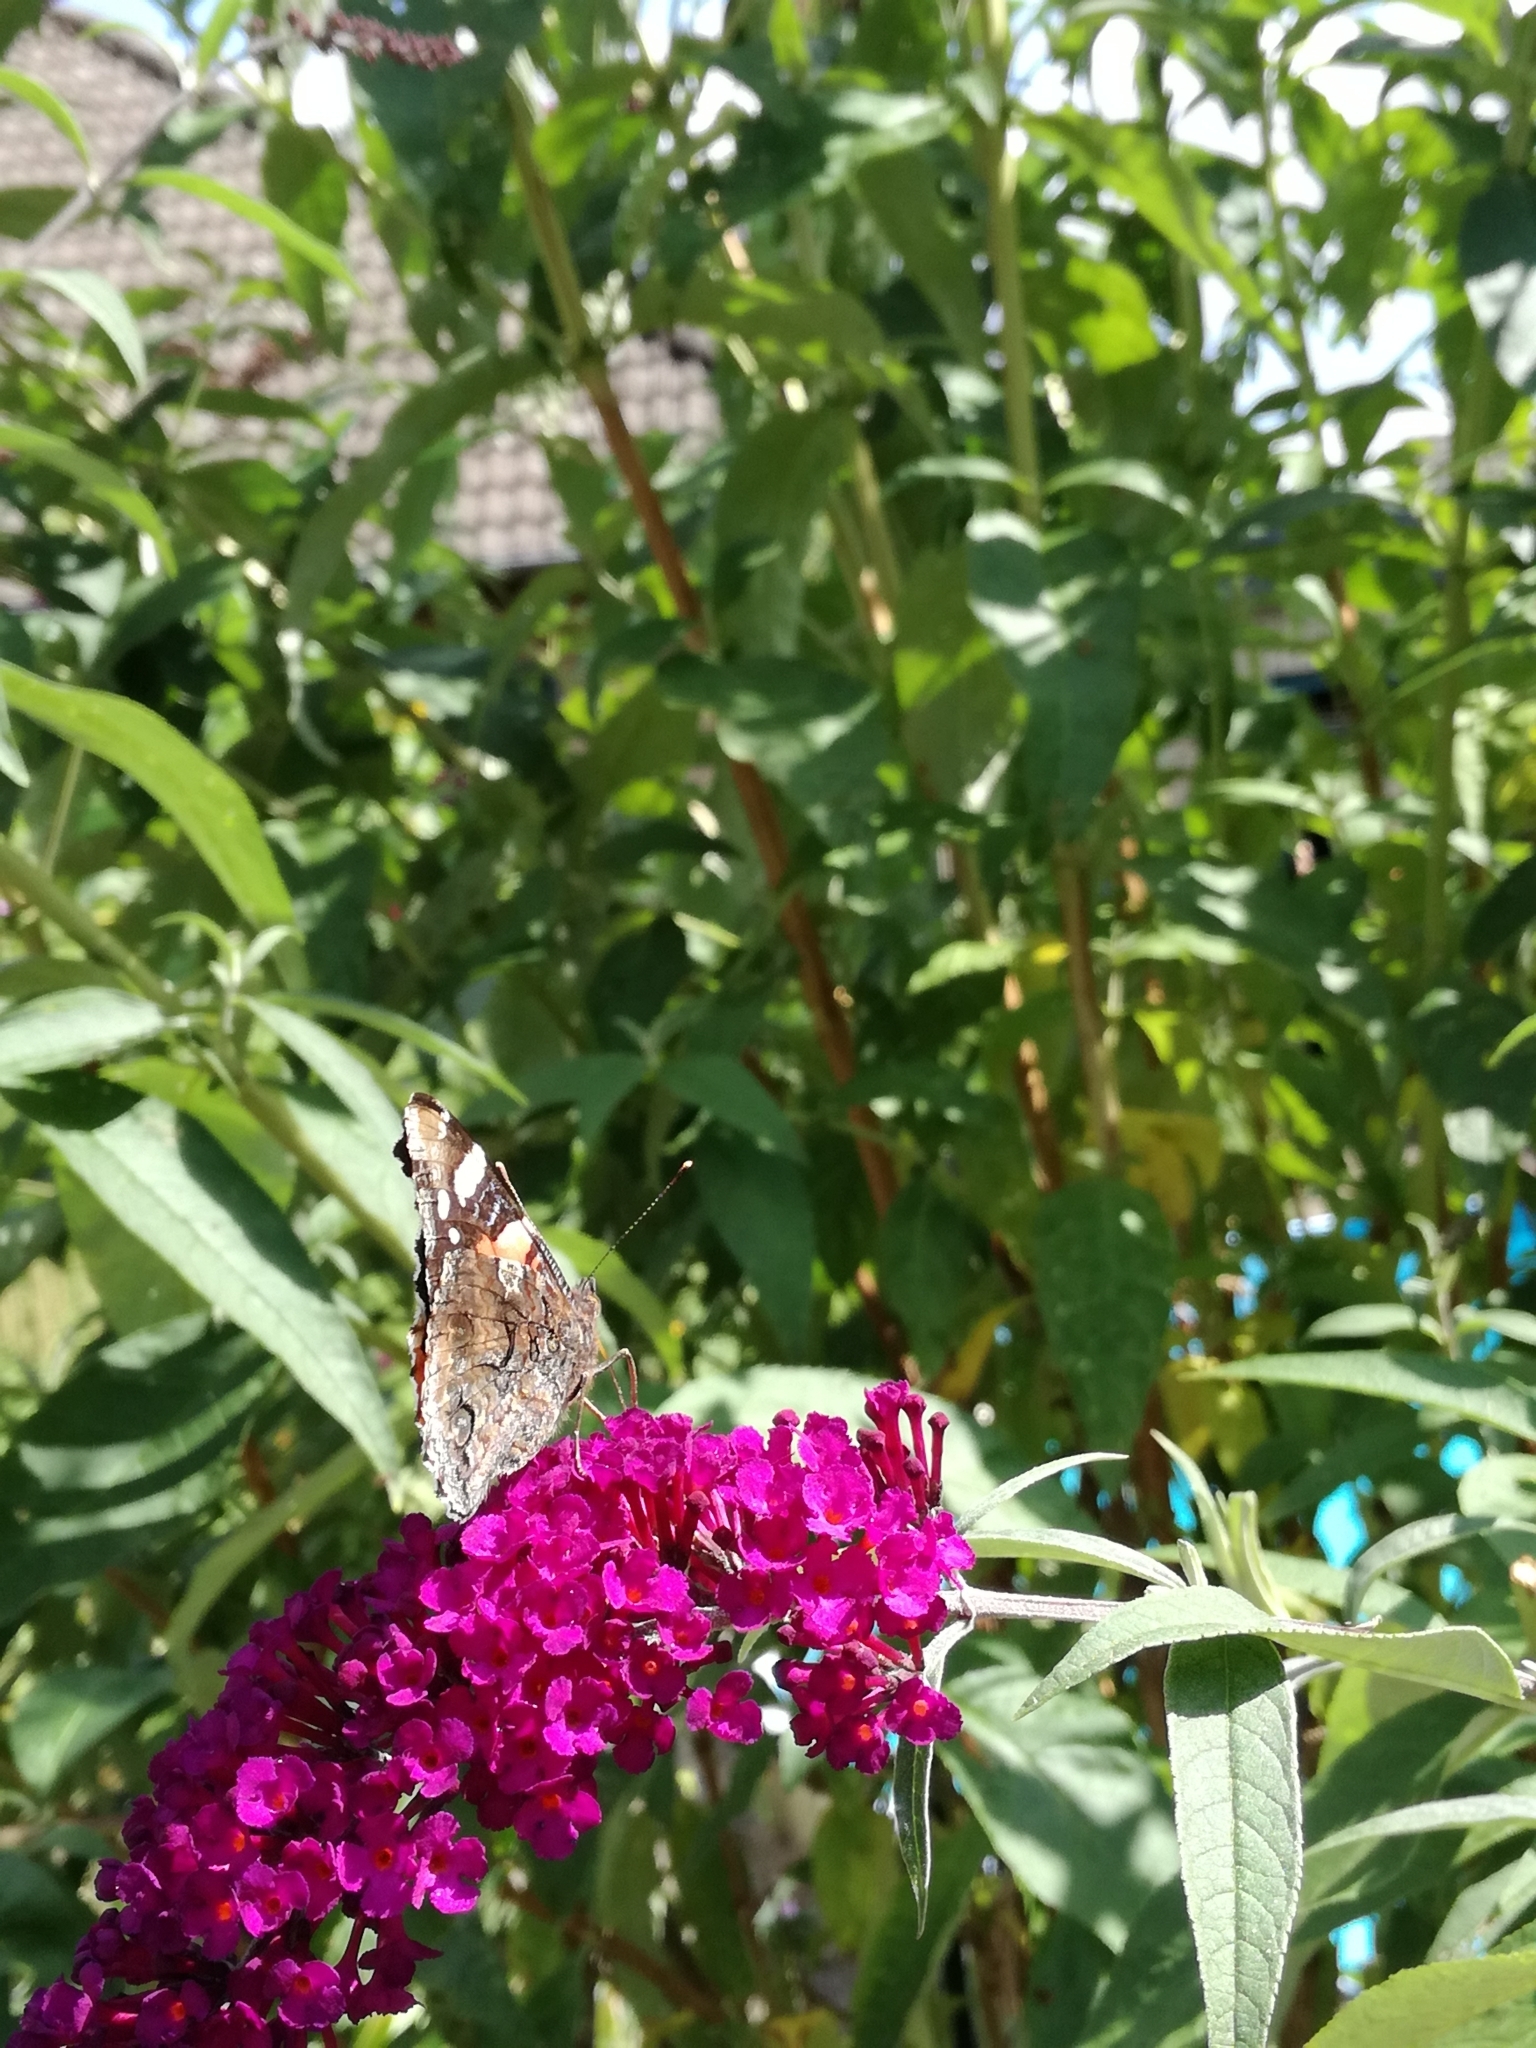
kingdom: Animalia
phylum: Arthropoda
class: Insecta
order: Lepidoptera
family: Nymphalidae
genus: Vanessa
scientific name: Vanessa cardui
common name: Painted lady
